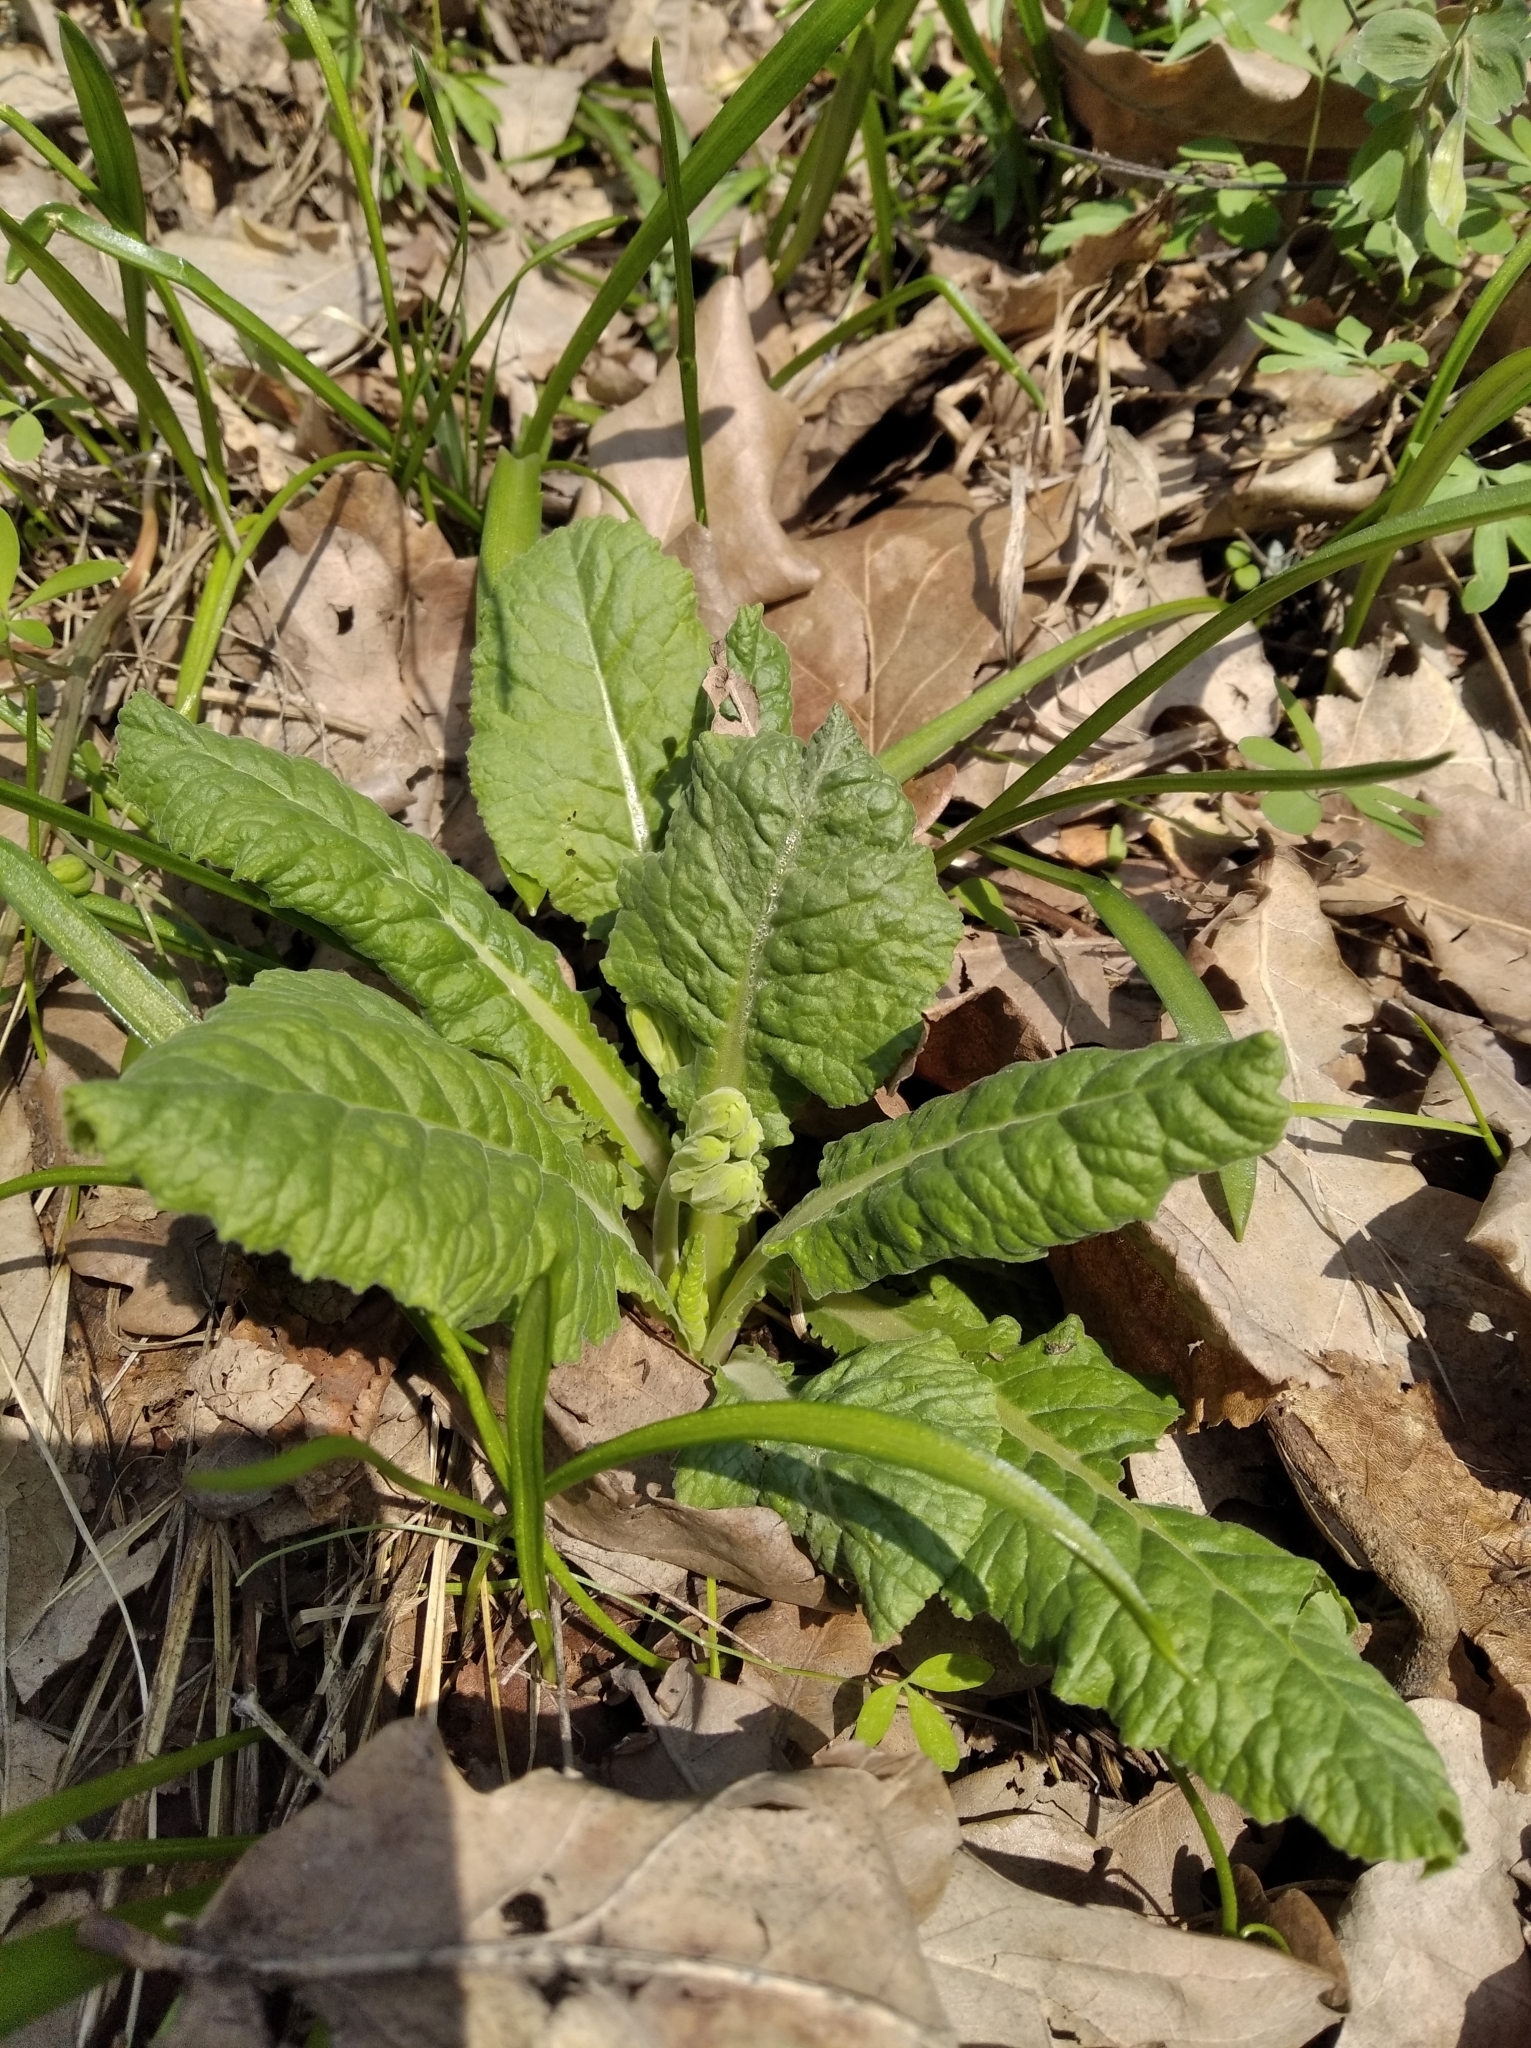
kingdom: Plantae
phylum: Tracheophyta
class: Magnoliopsida
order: Ericales
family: Primulaceae
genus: Primula
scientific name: Primula veris
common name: Cowslip
